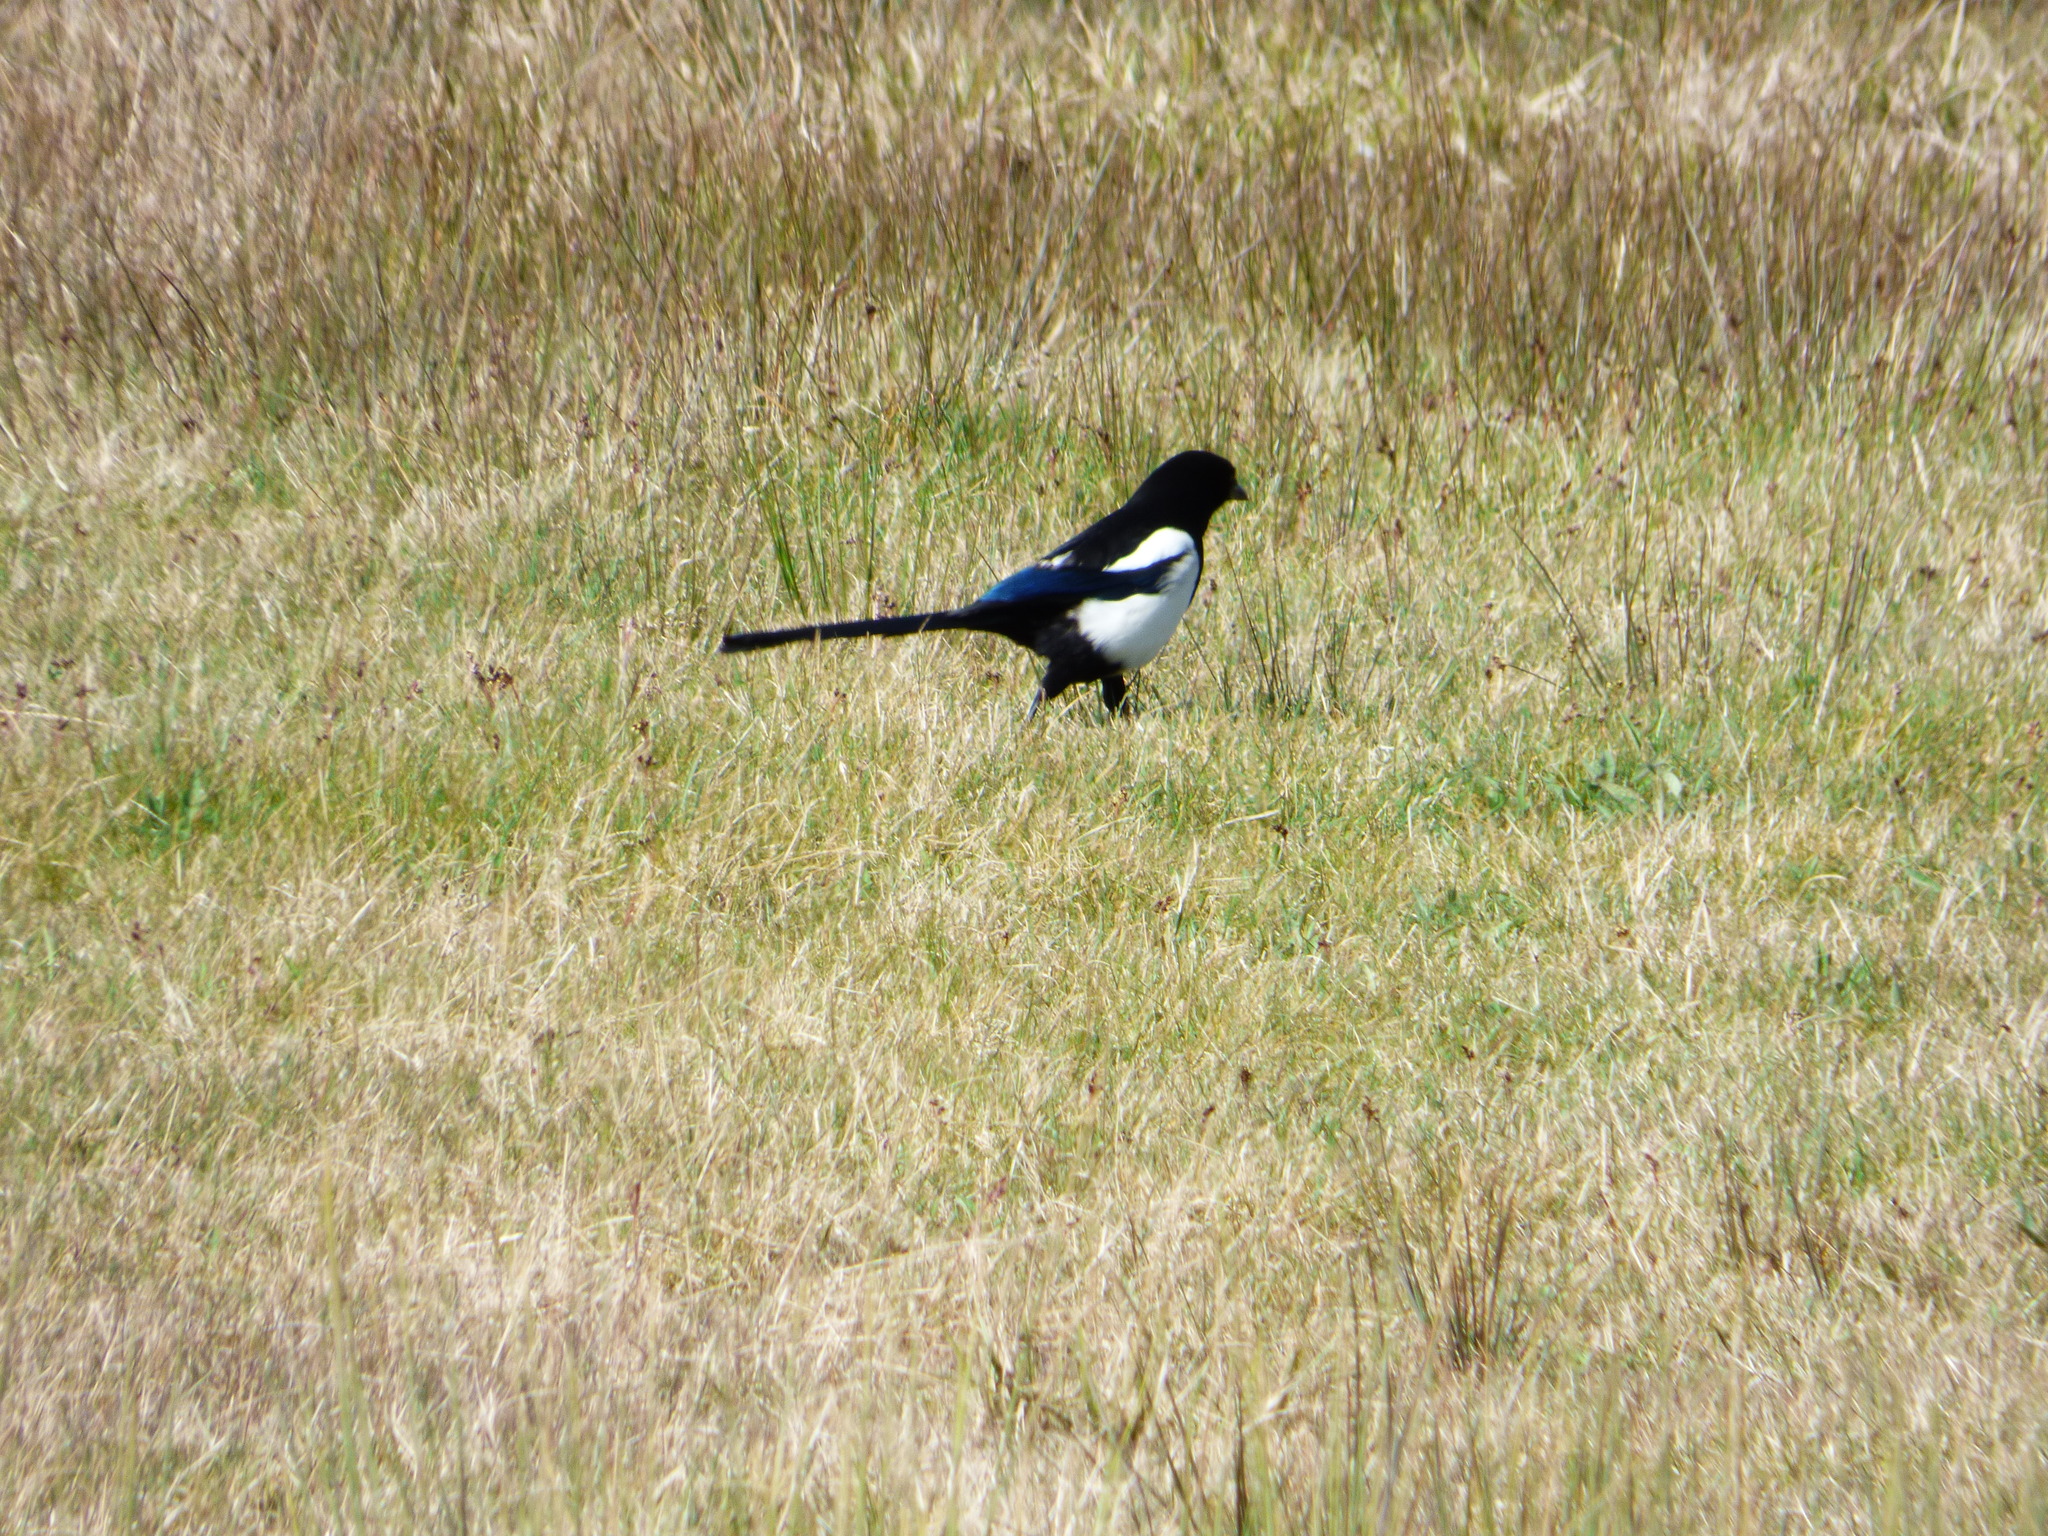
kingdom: Animalia
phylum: Chordata
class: Aves
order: Passeriformes
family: Corvidae
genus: Pica
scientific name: Pica pica
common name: Eurasian magpie
